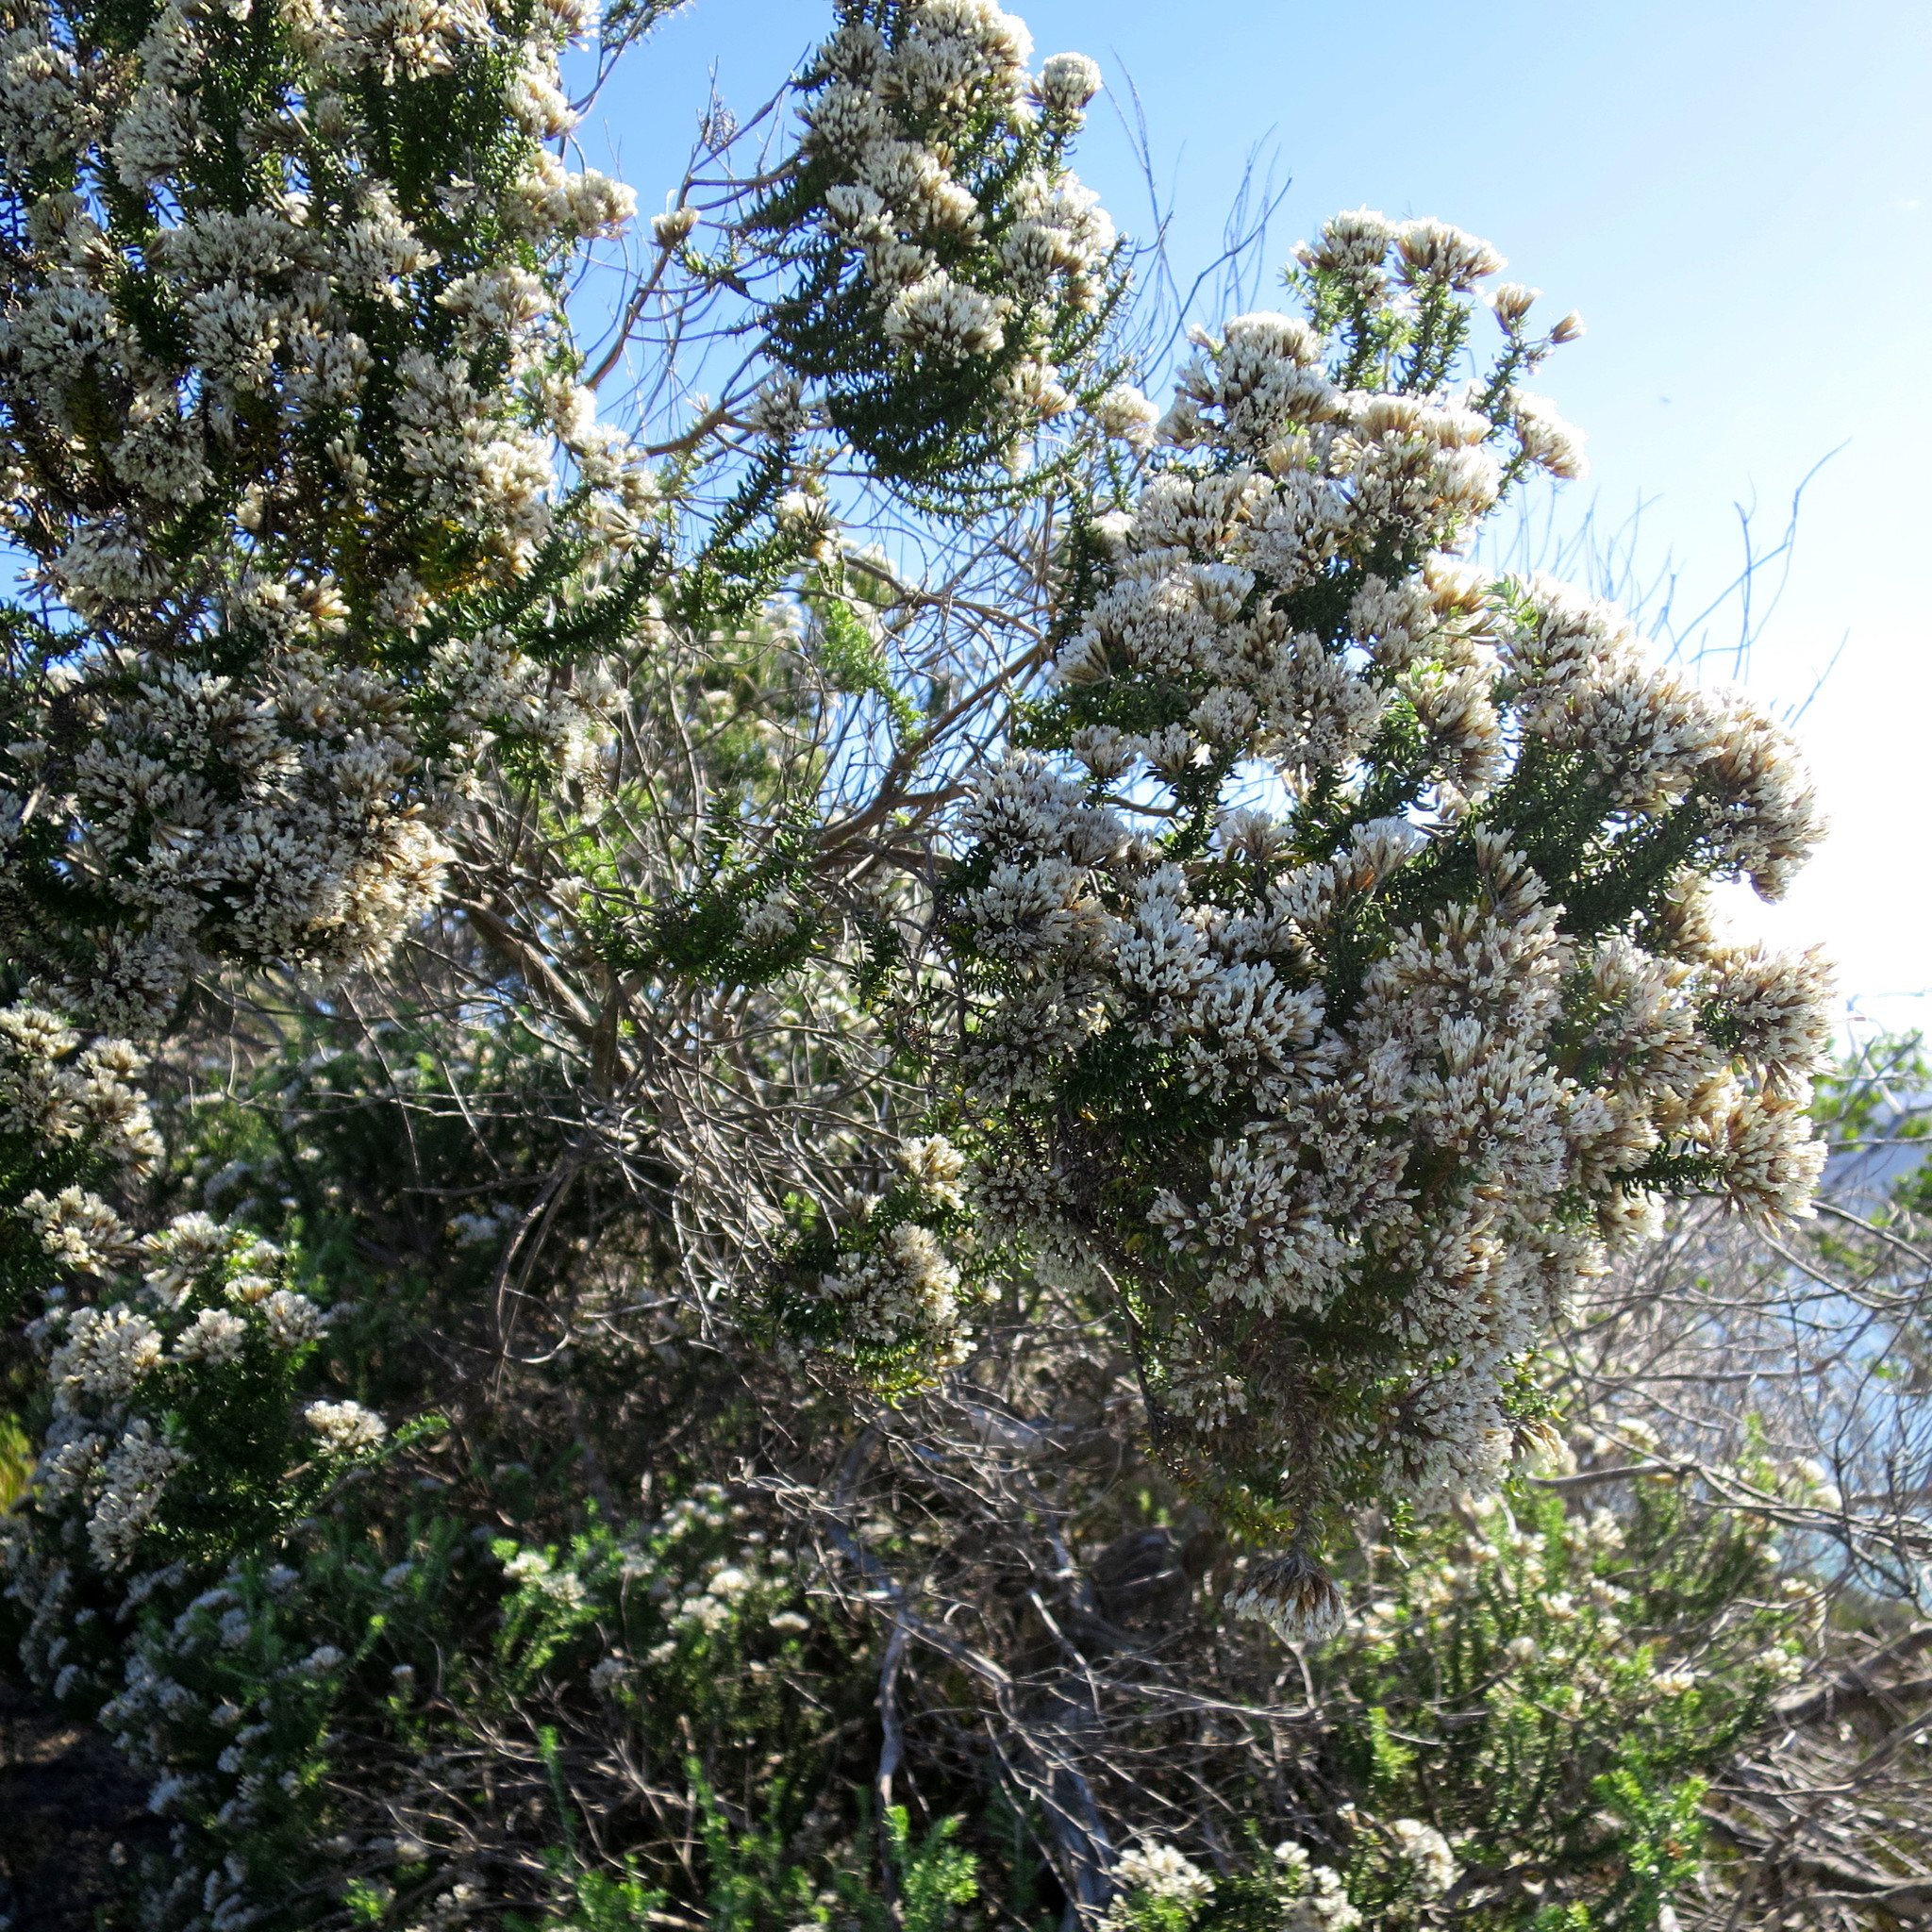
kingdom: Plantae
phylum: Tracheophyta
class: Magnoliopsida
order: Asterales
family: Asteraceae
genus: Metalasia
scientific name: Metalasia muricata
